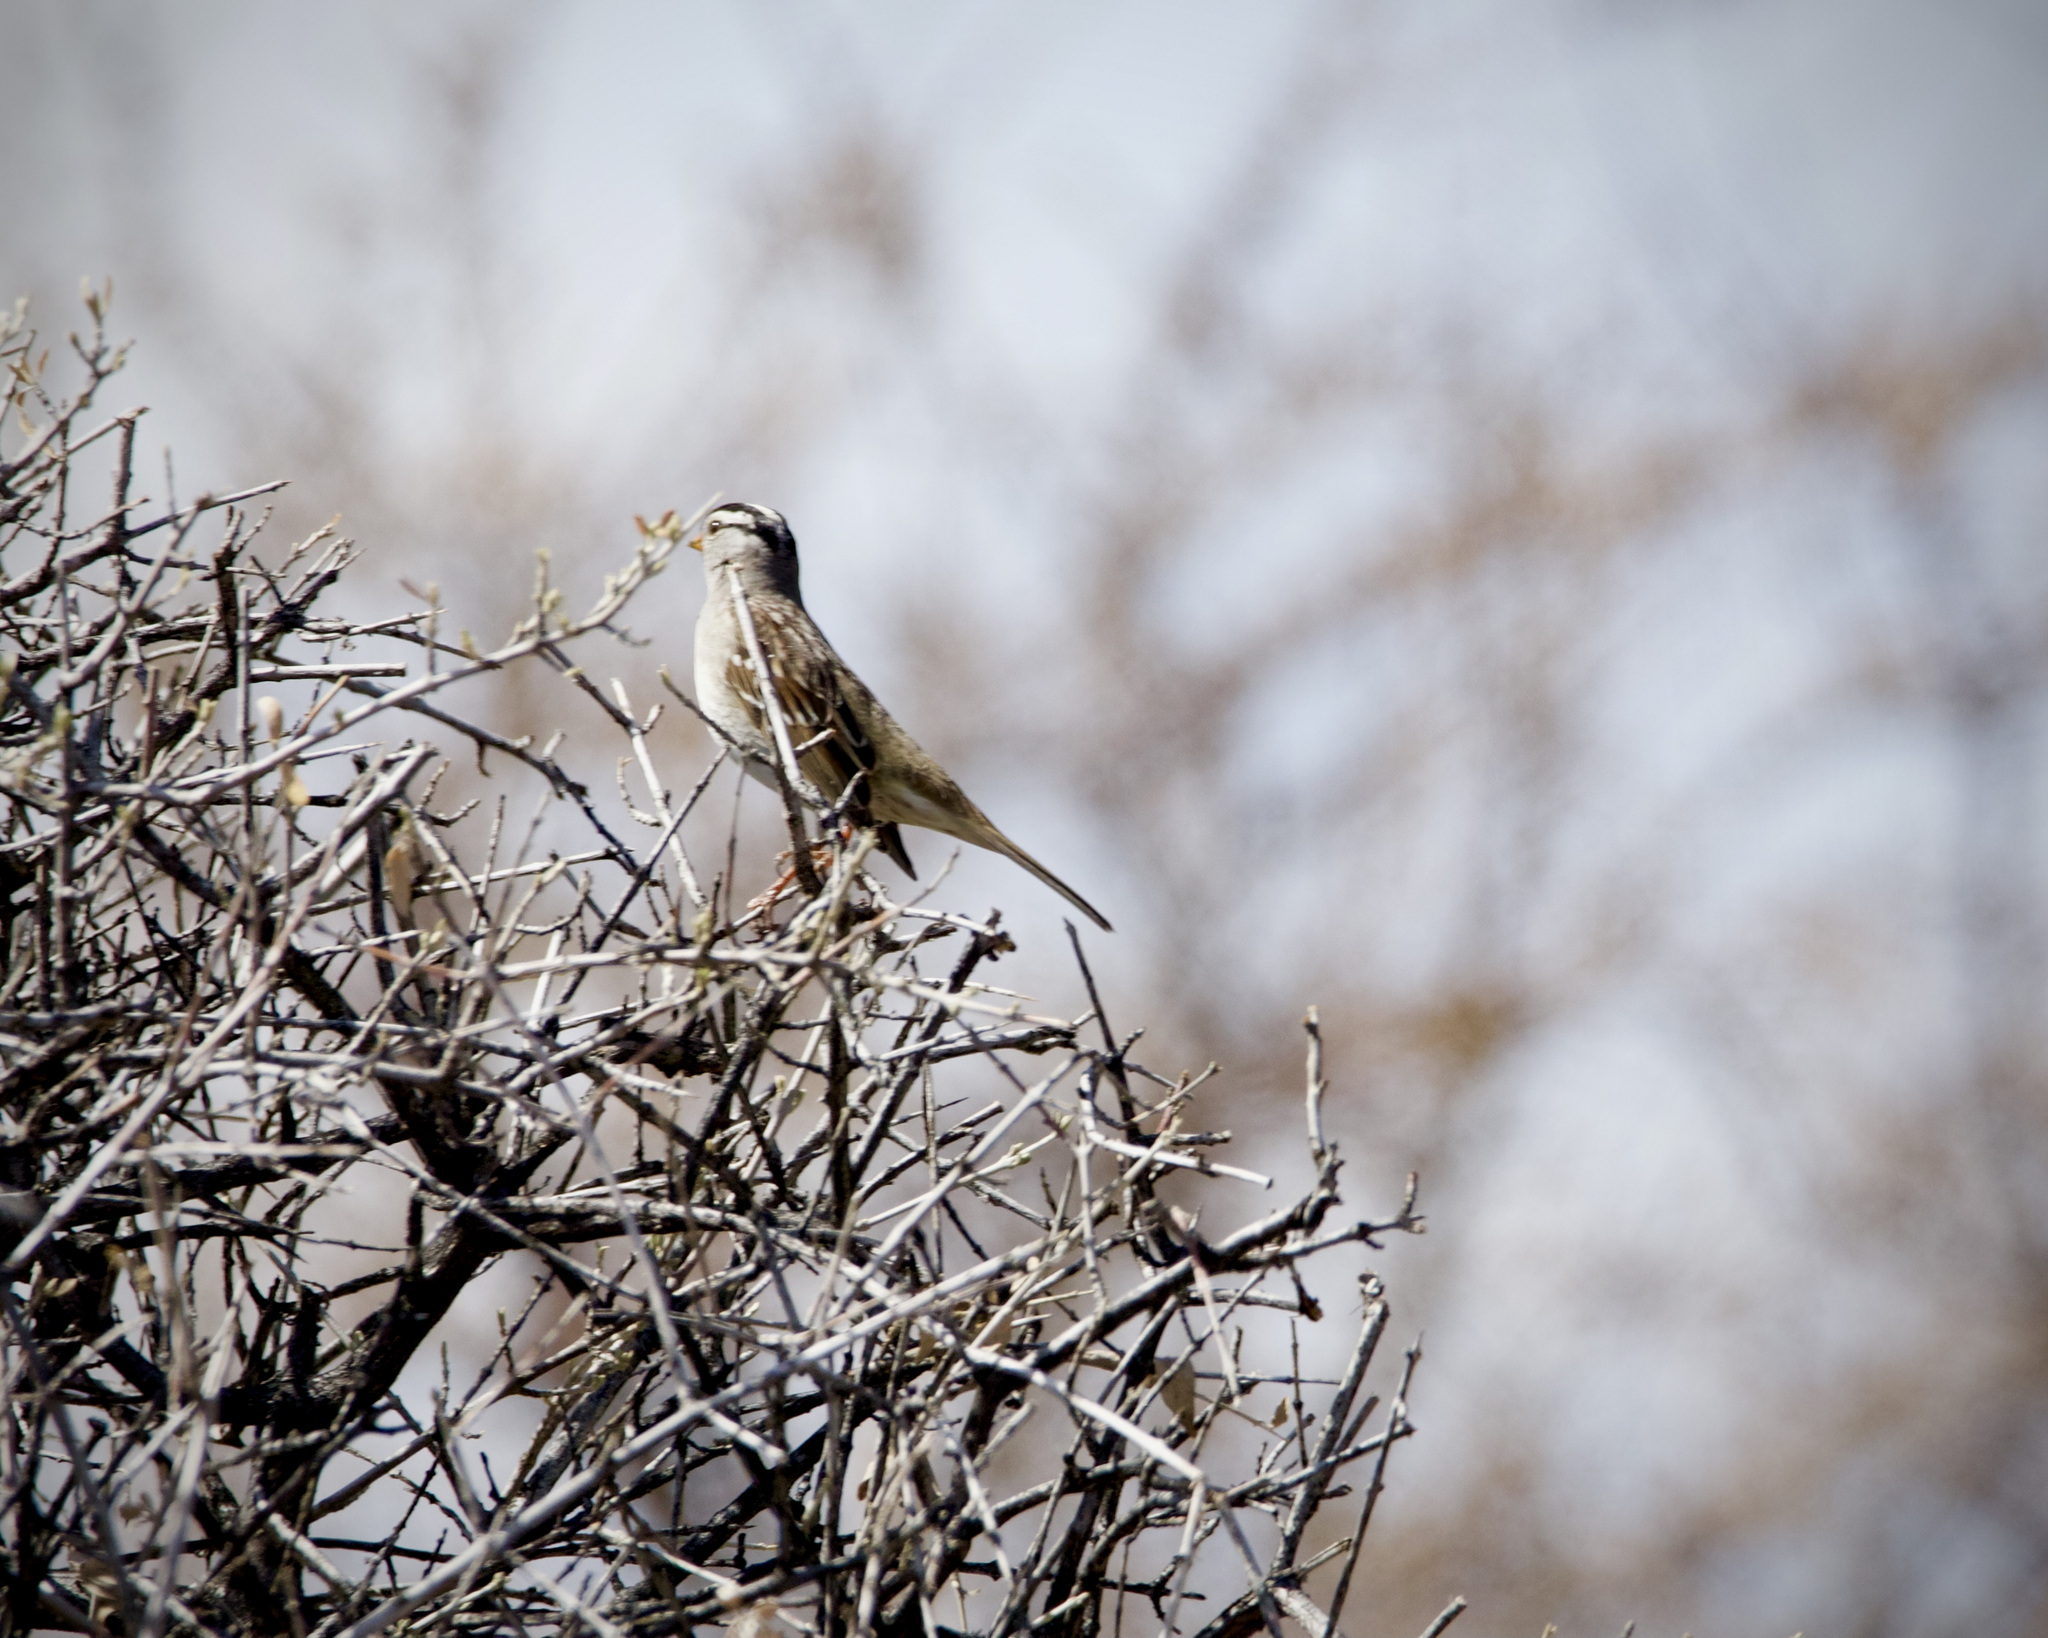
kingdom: Animalia
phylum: Chordata
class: Aves
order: Passeriformes
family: Passerellidae
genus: Zonotrichia
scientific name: Zonotrichia leucophrys
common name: White-crowned sparrow
